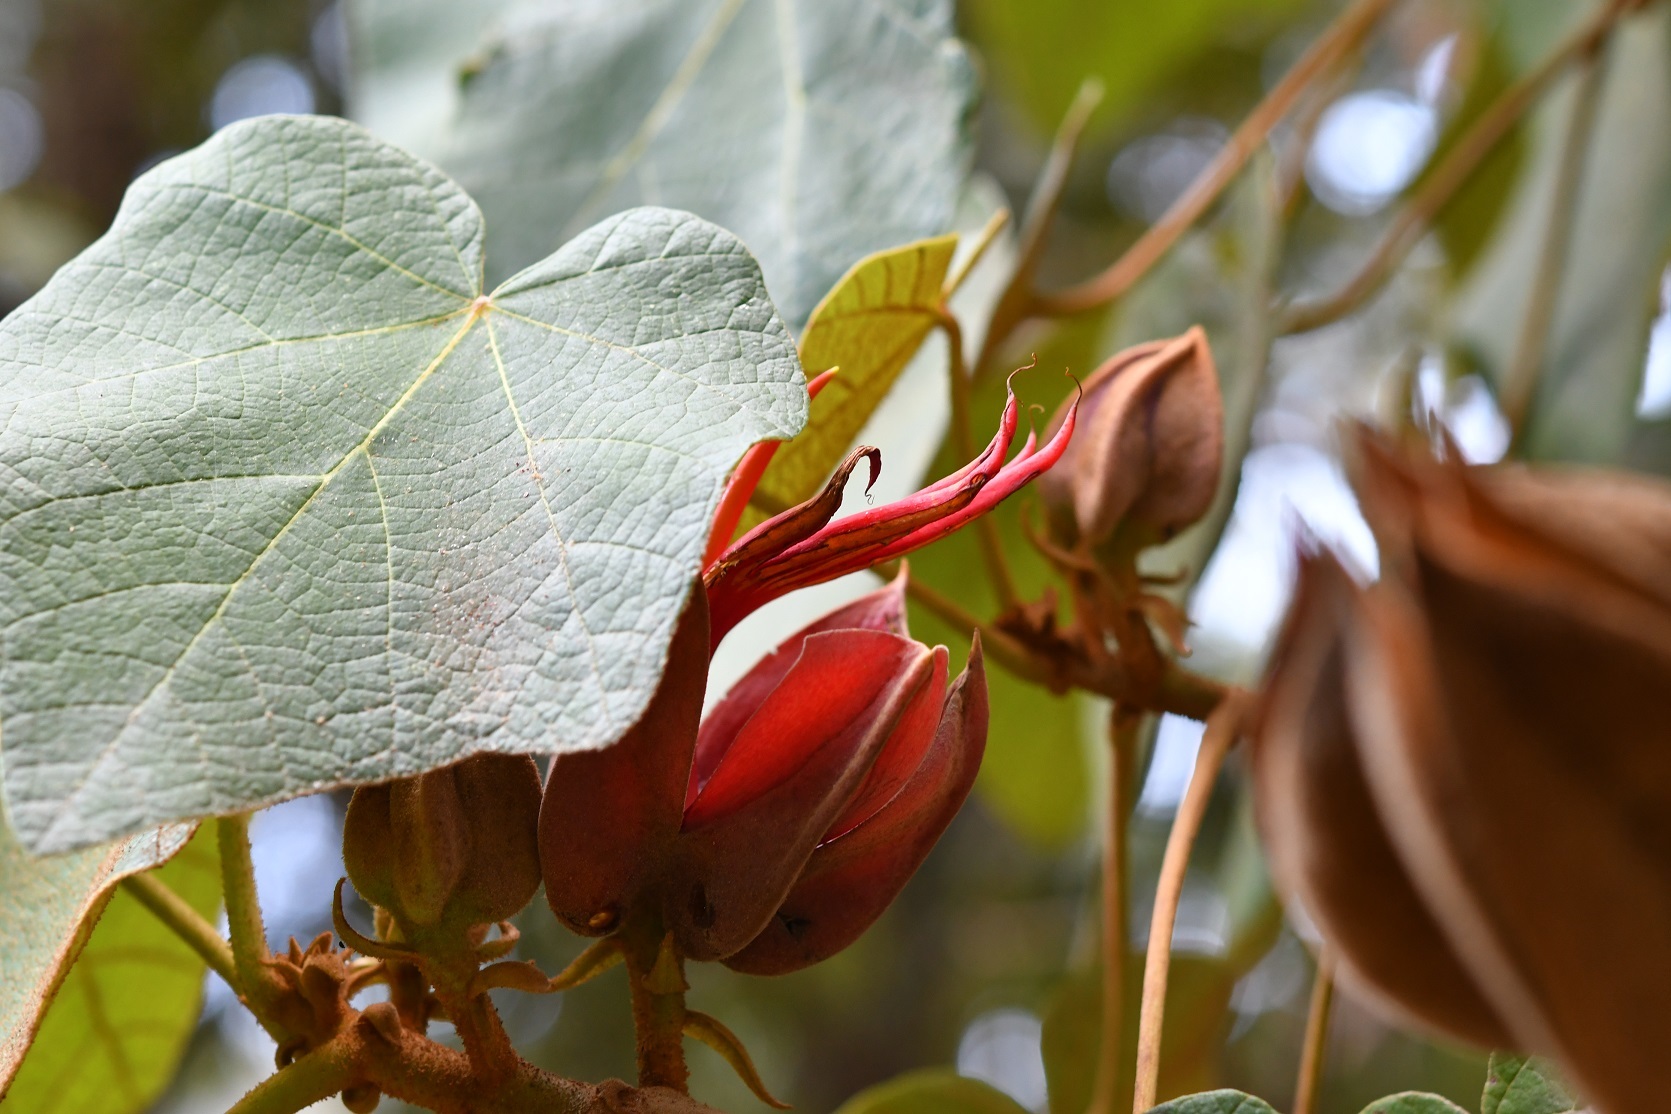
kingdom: Plantae
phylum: Tracheophyta
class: Magnoliopsida
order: Malvales
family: Malvaceae
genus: Chiranthodendron
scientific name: Chiranthodendron pentadactylon
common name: Mexican-hat-plant
